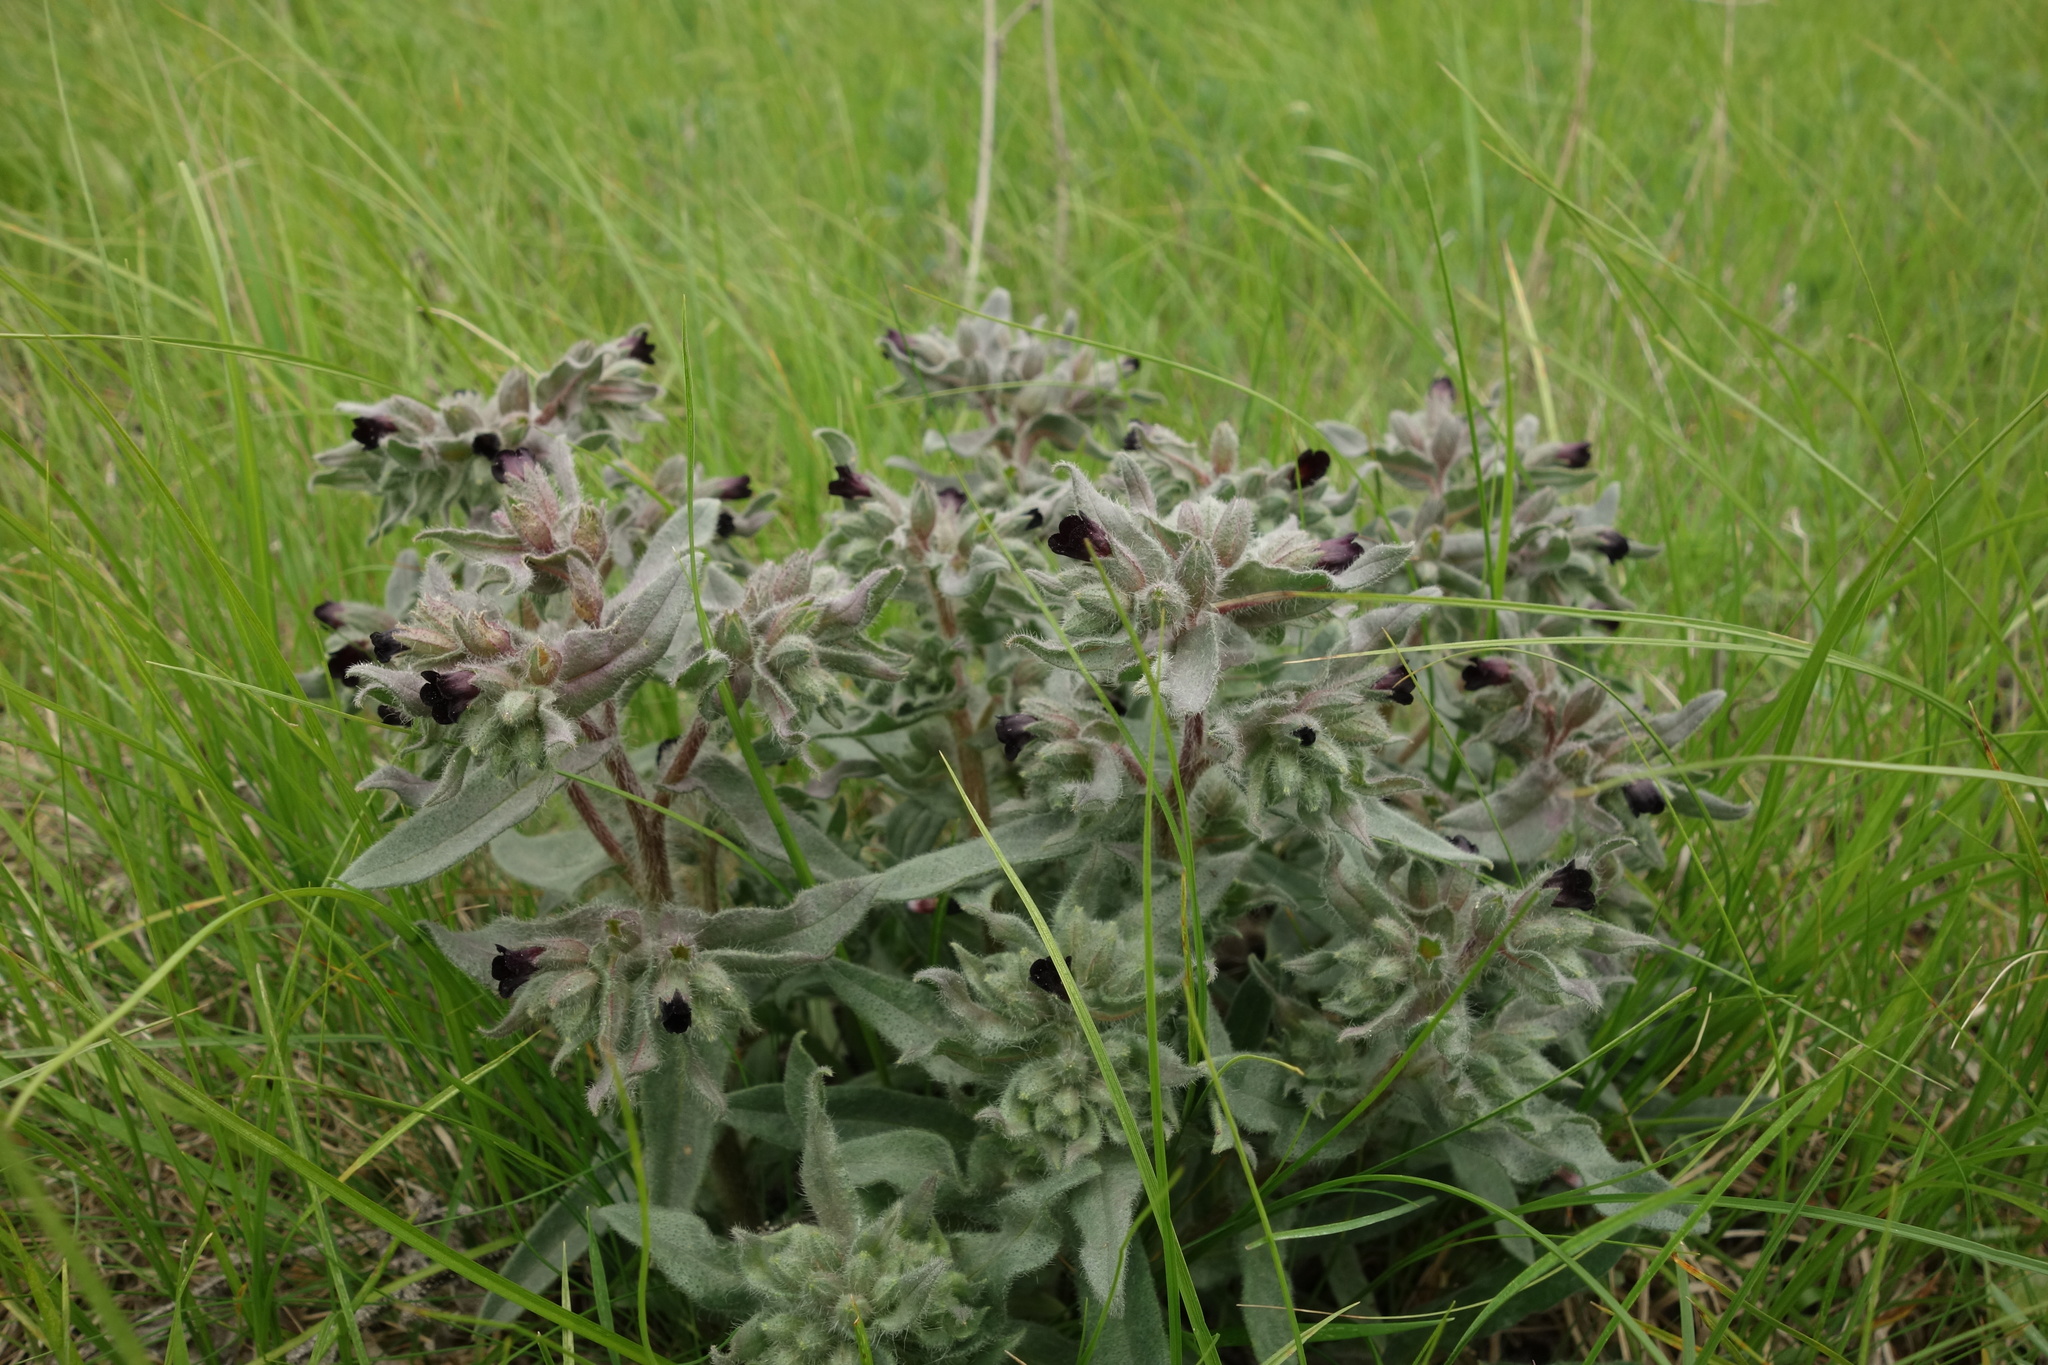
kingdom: Plantae
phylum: Tracheophyta
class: Magnoliopsida
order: Boraginales
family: Boraginaceae
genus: Nonea
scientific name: Nonea pulla
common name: Brown nonea
